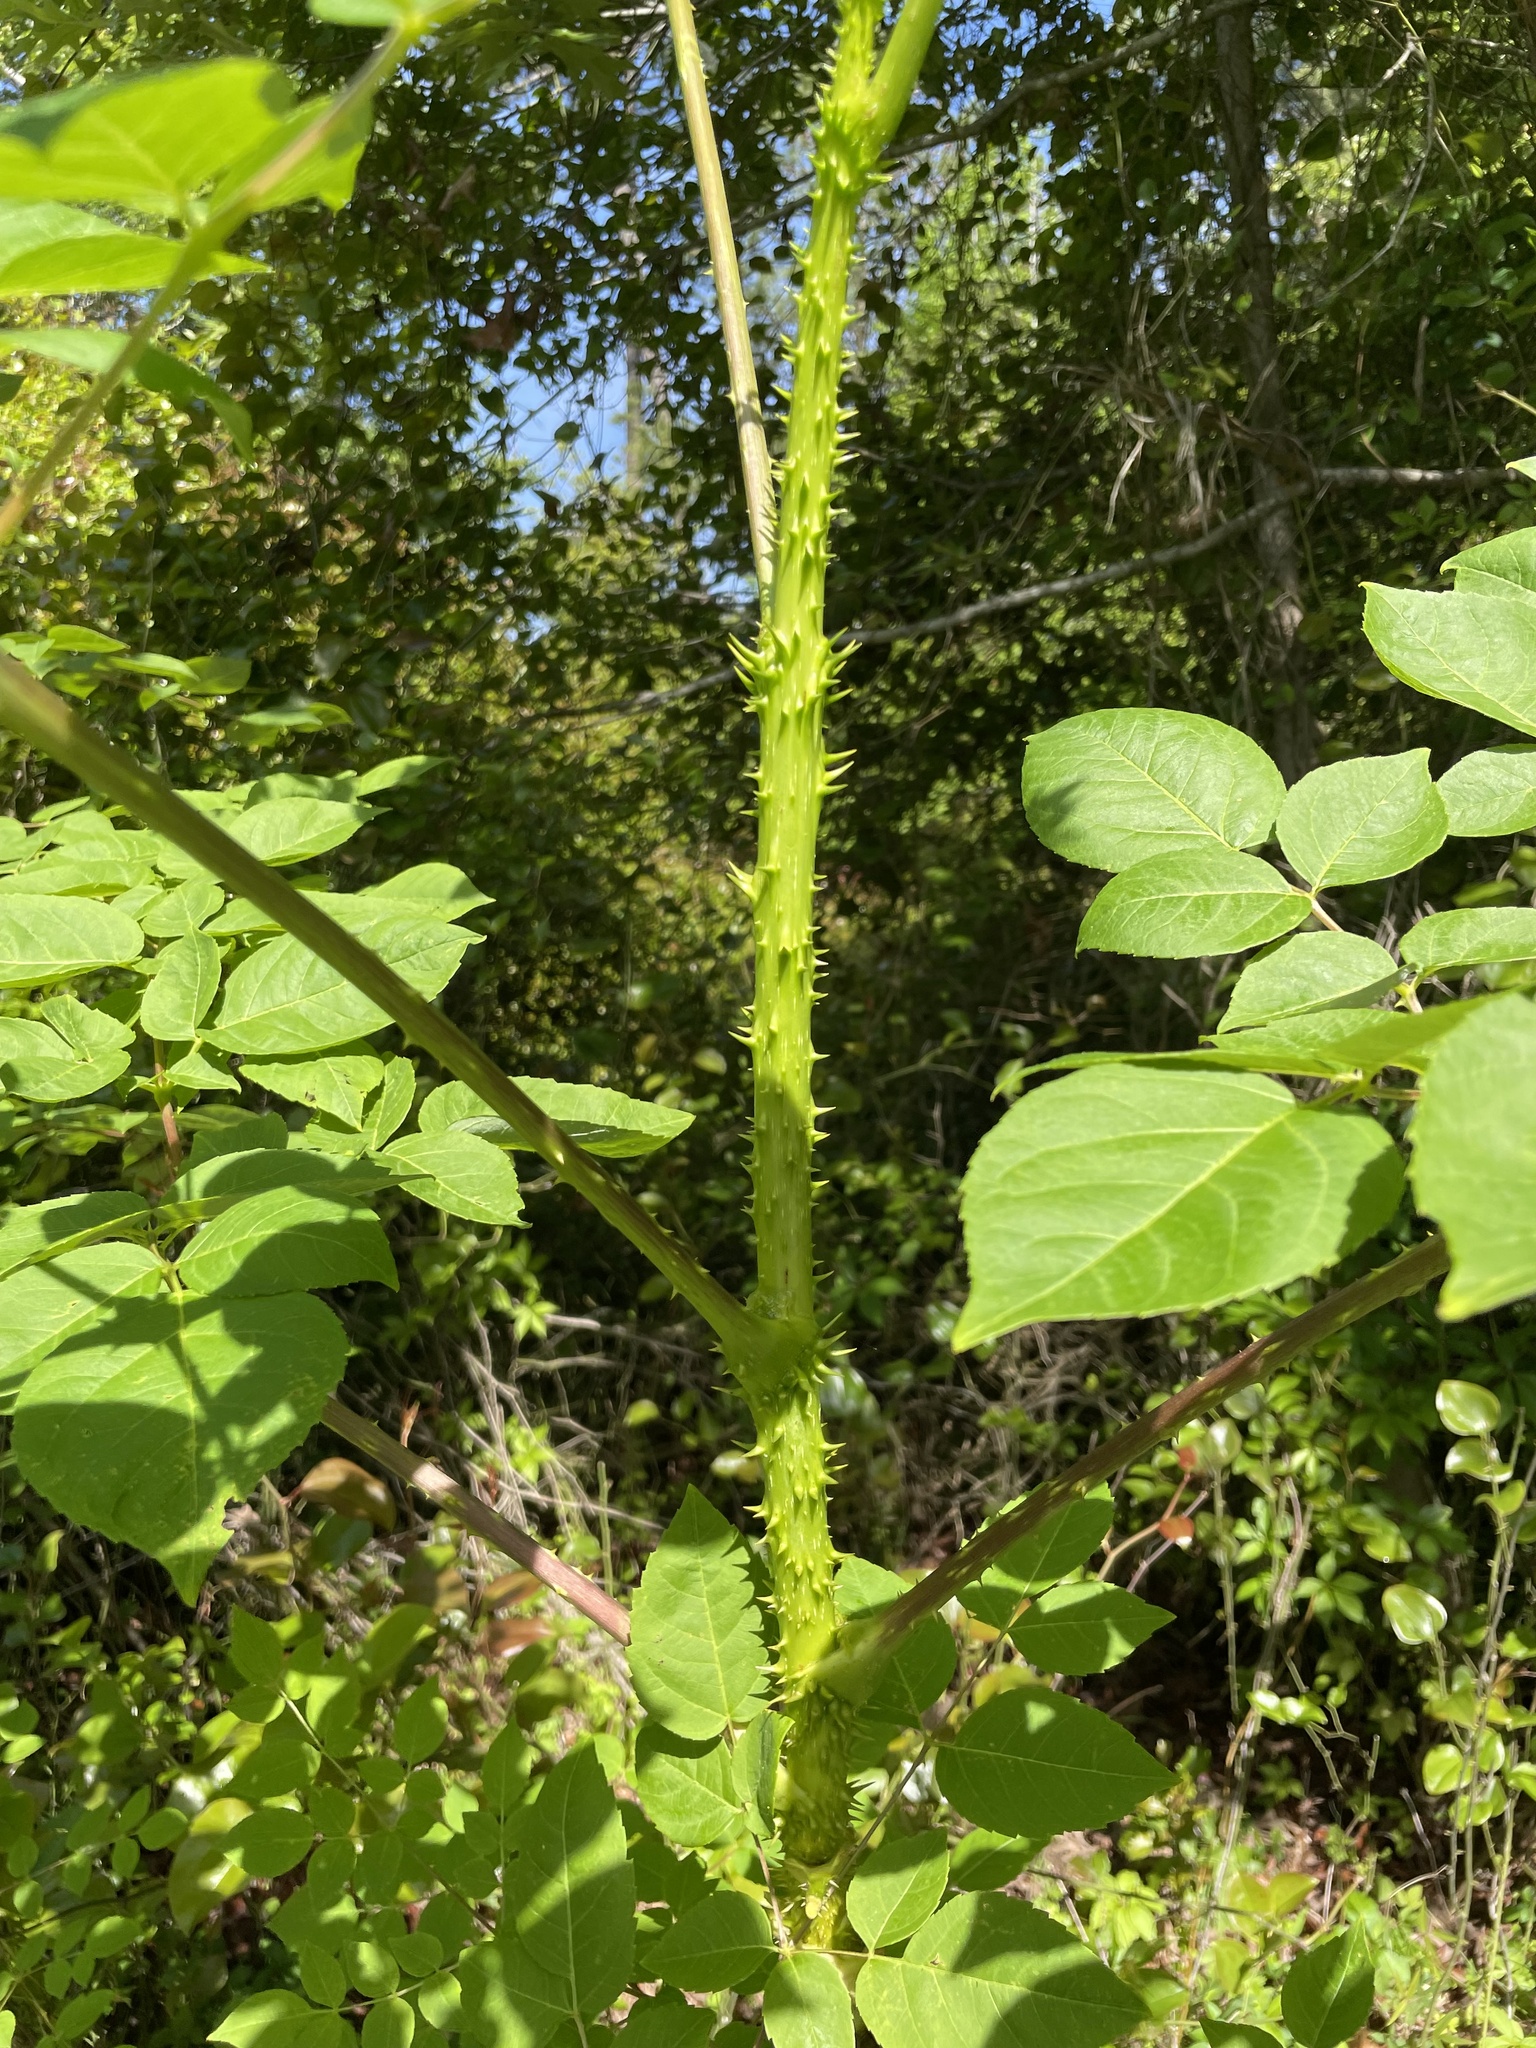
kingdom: Plantae
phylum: Tracheophyta
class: Magnoliopsida
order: Apiales
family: Araliaceae
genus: Aralia
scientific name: Aralia spinosa
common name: Hercules'-club
